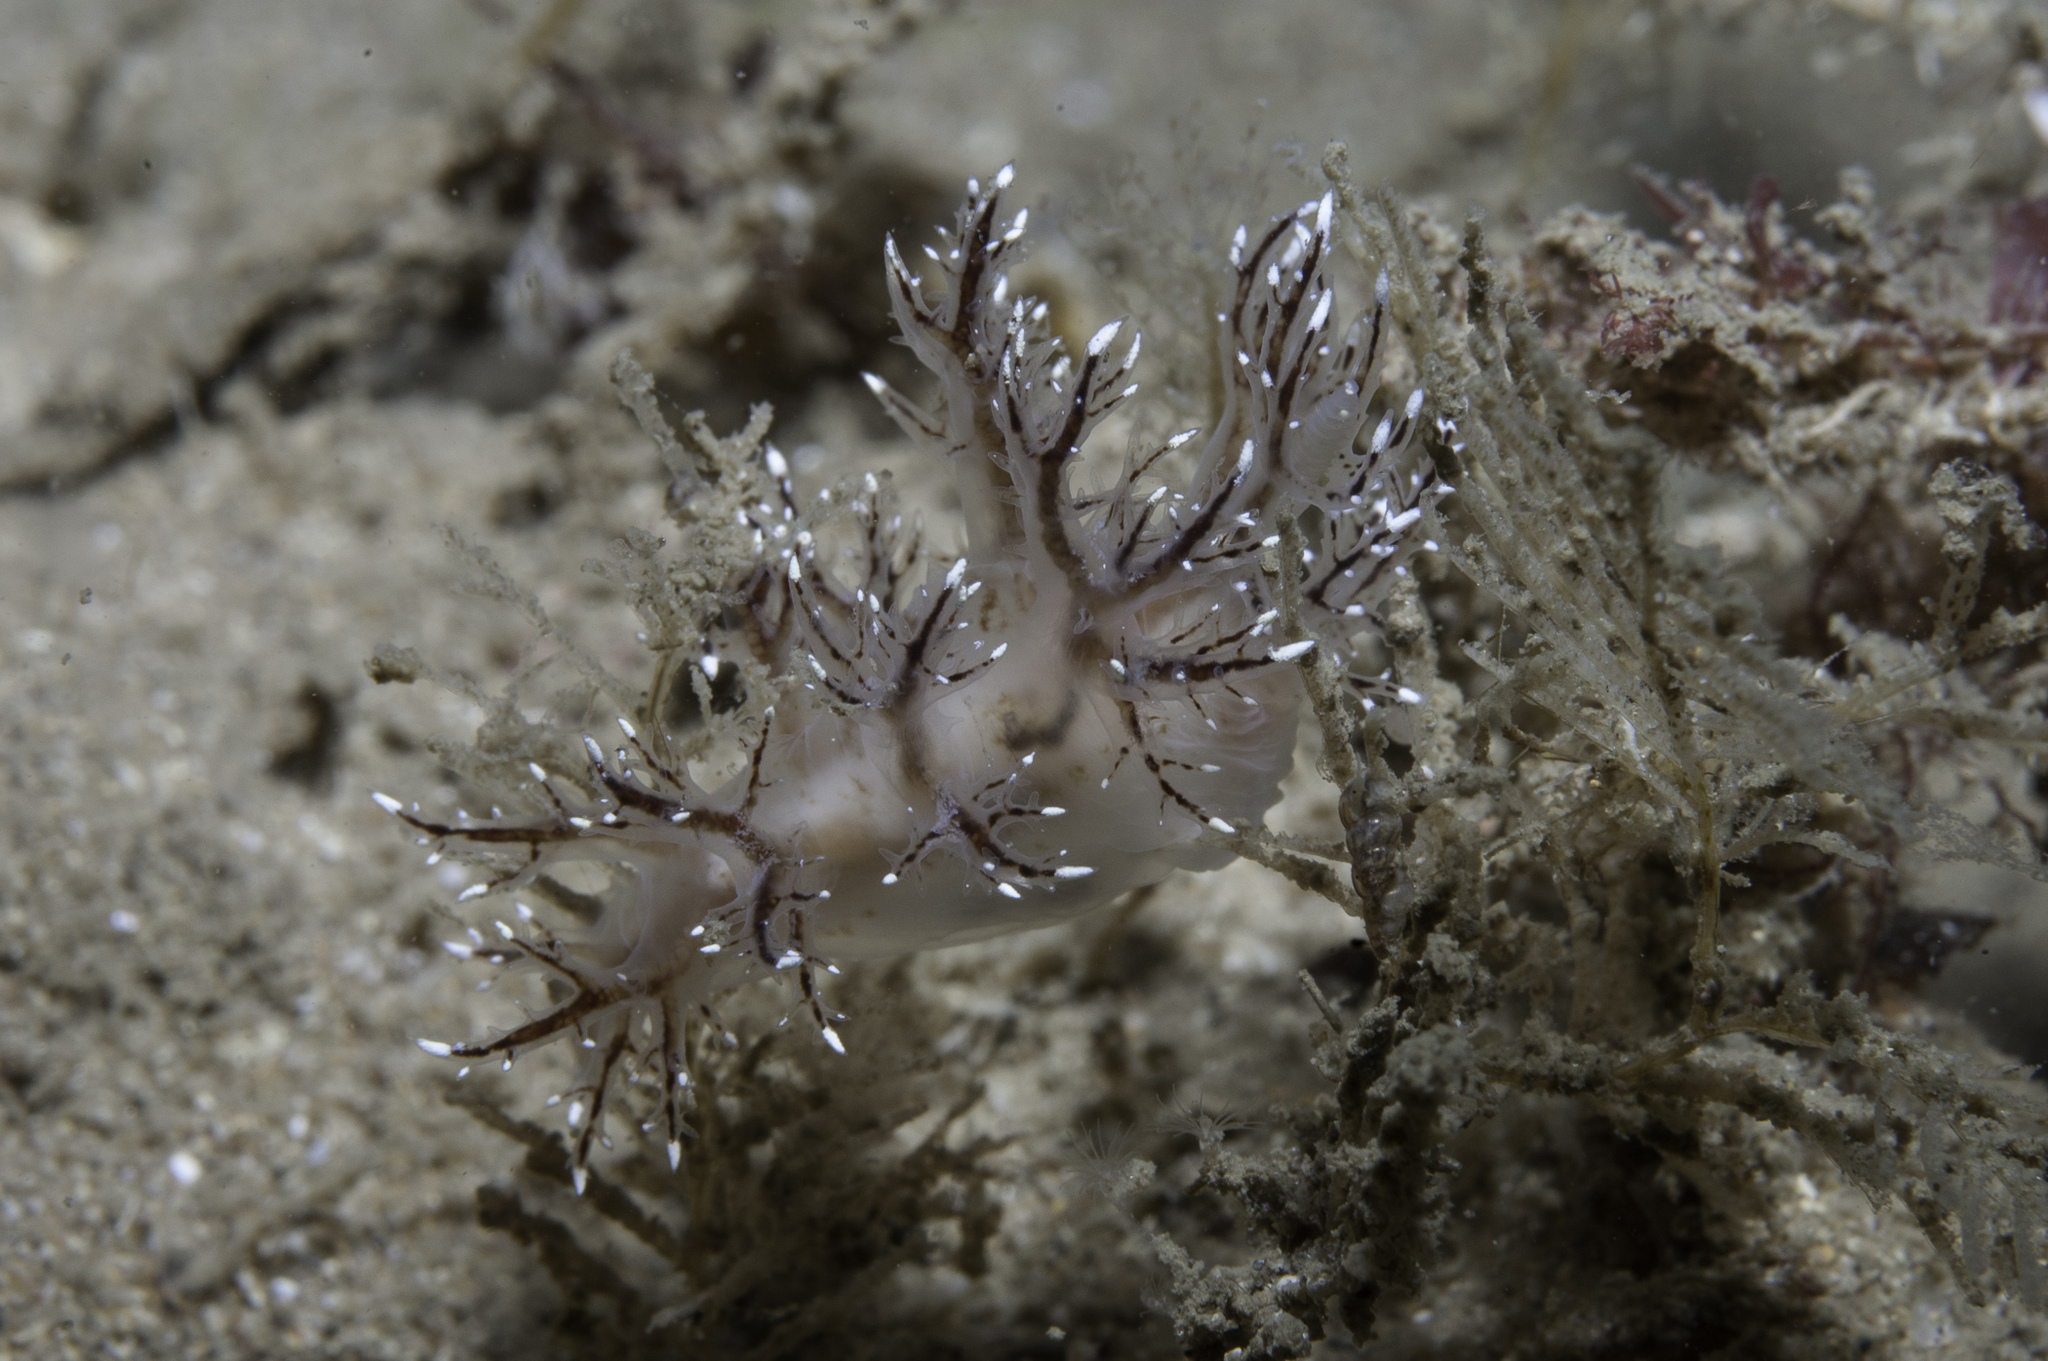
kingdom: Animalia
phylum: Mollusca
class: Gastropoda
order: Nudibranchia
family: Dendronotidae
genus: Dendronotus
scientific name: Dendronotus keatleyae
